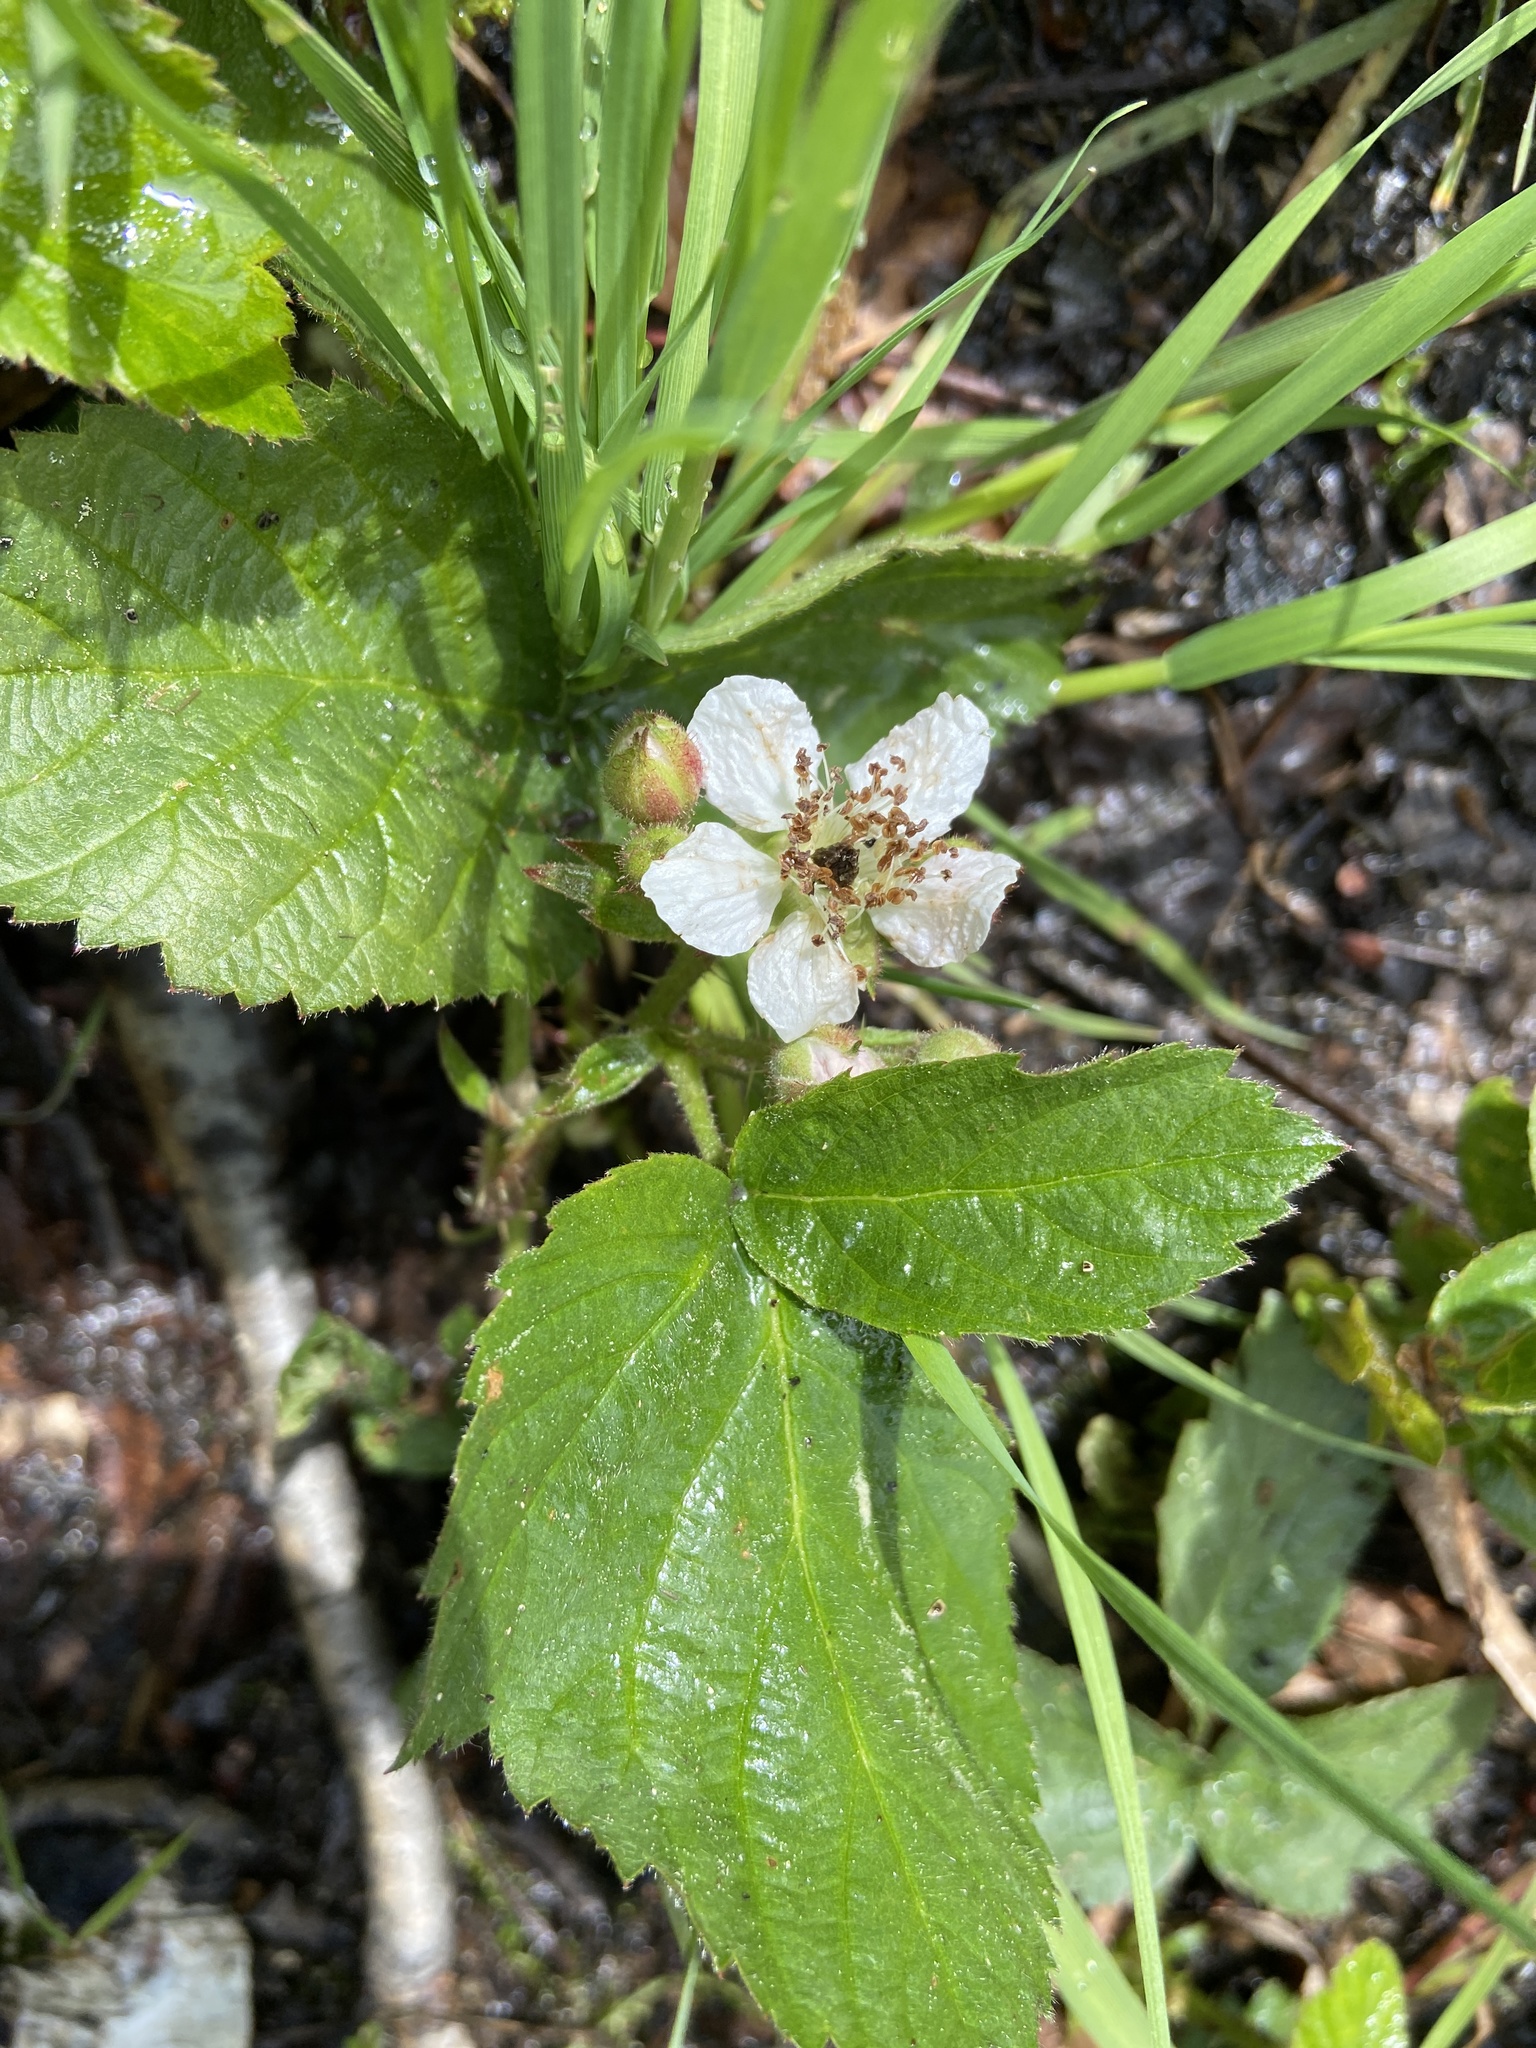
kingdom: Plantae
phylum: Tracheophyta
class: Magnoliopsida
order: Rosales
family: Rosaceae
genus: Rubus
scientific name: Rubus caesius
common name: Dewberry
